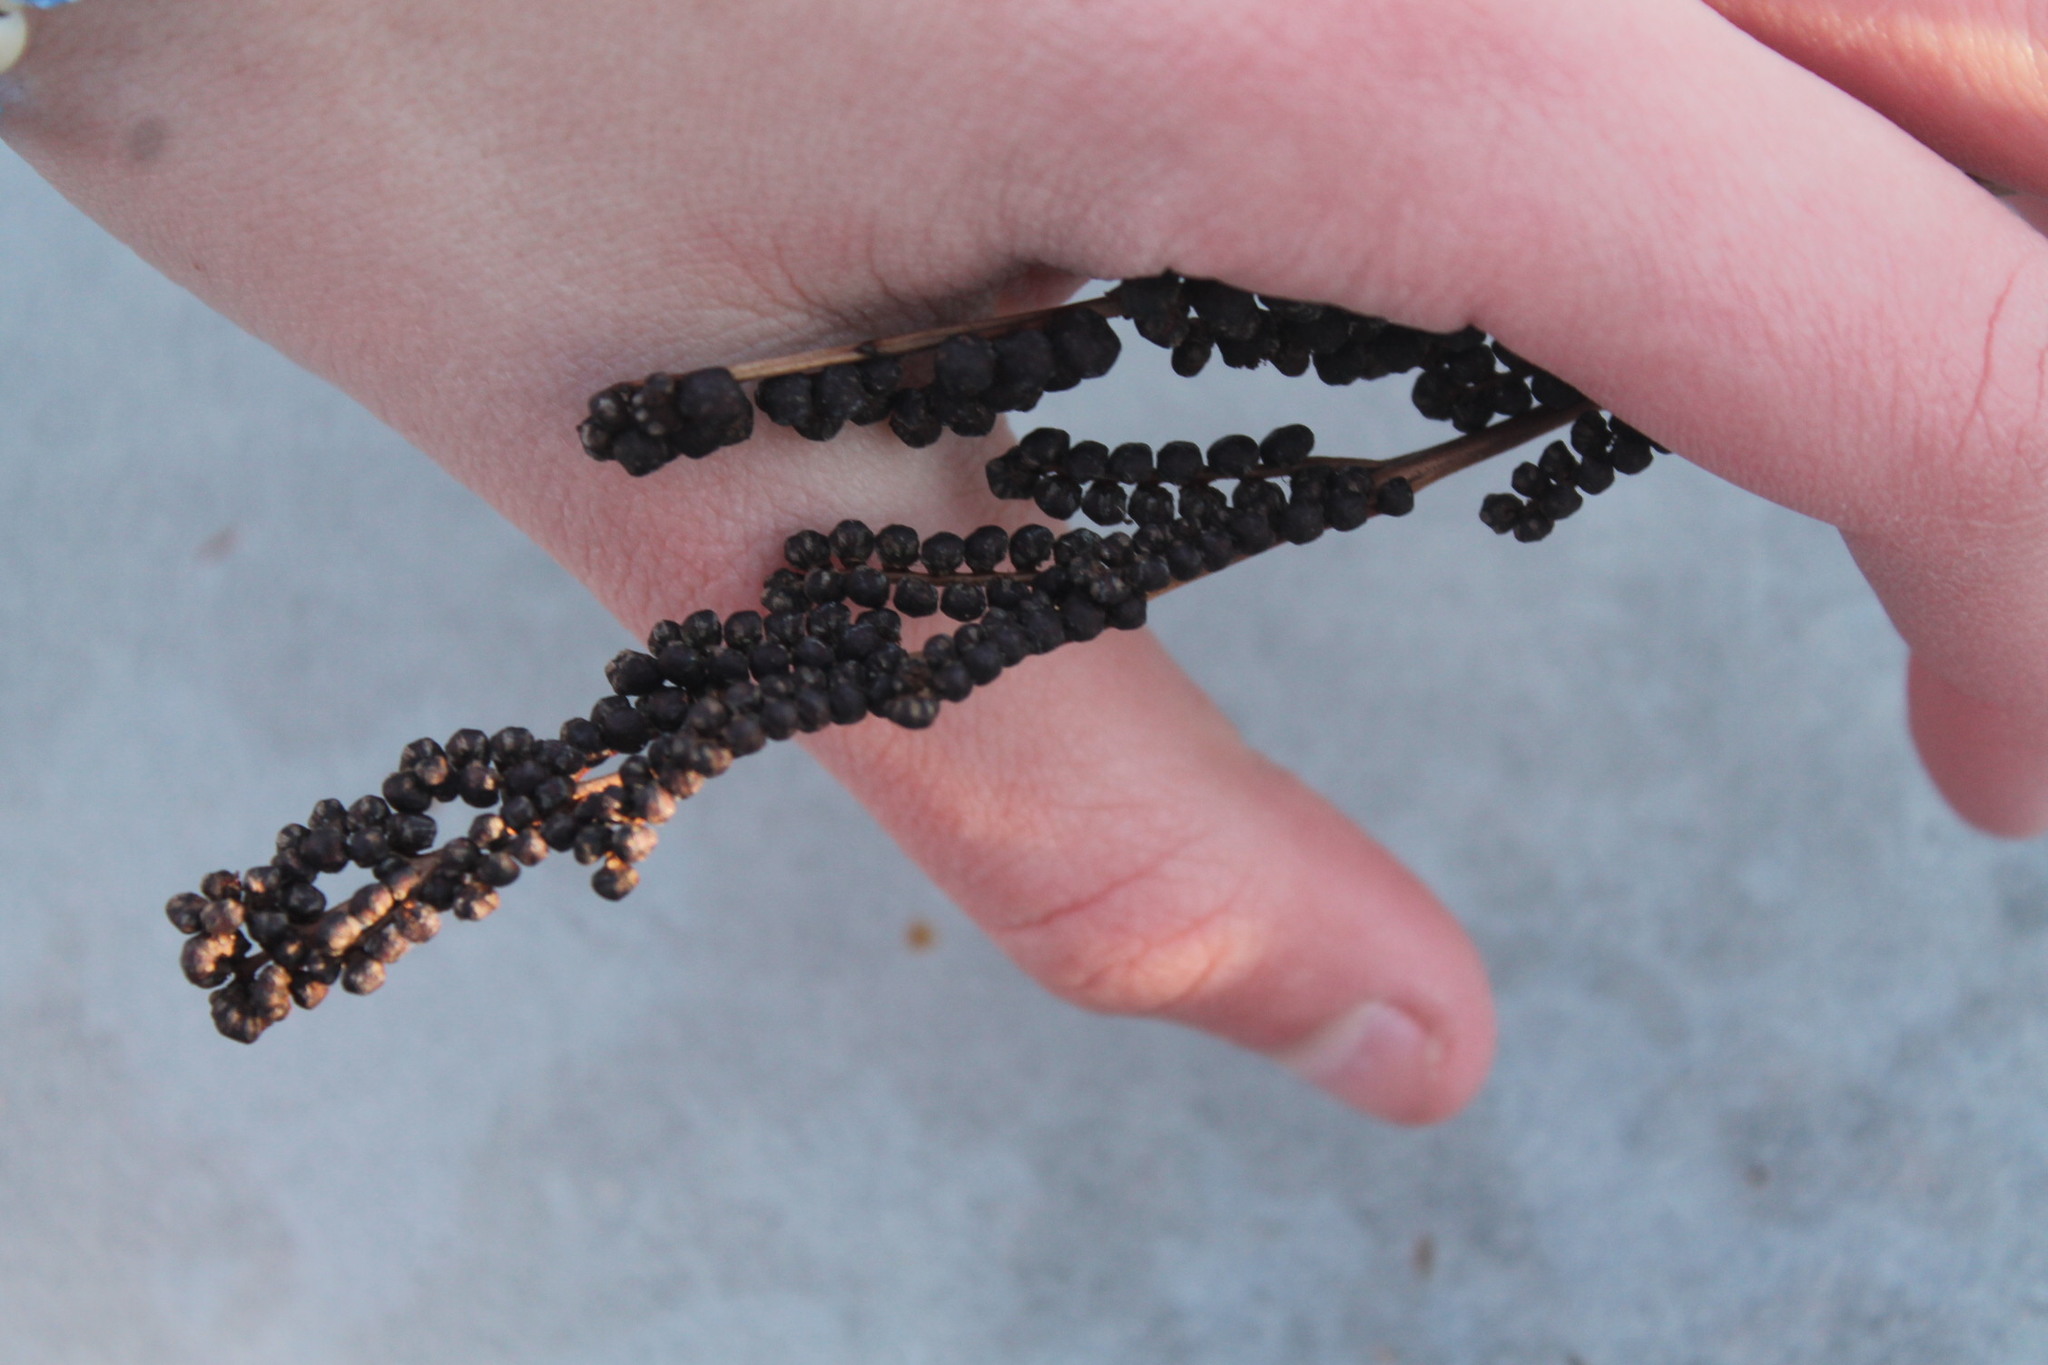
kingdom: Plantae
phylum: Tracheophyta
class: Polypodiopsida
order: Polypodiales
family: Onocleaceae
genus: Onoclea
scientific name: Onoclea sensibilis
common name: Sensitive fern
